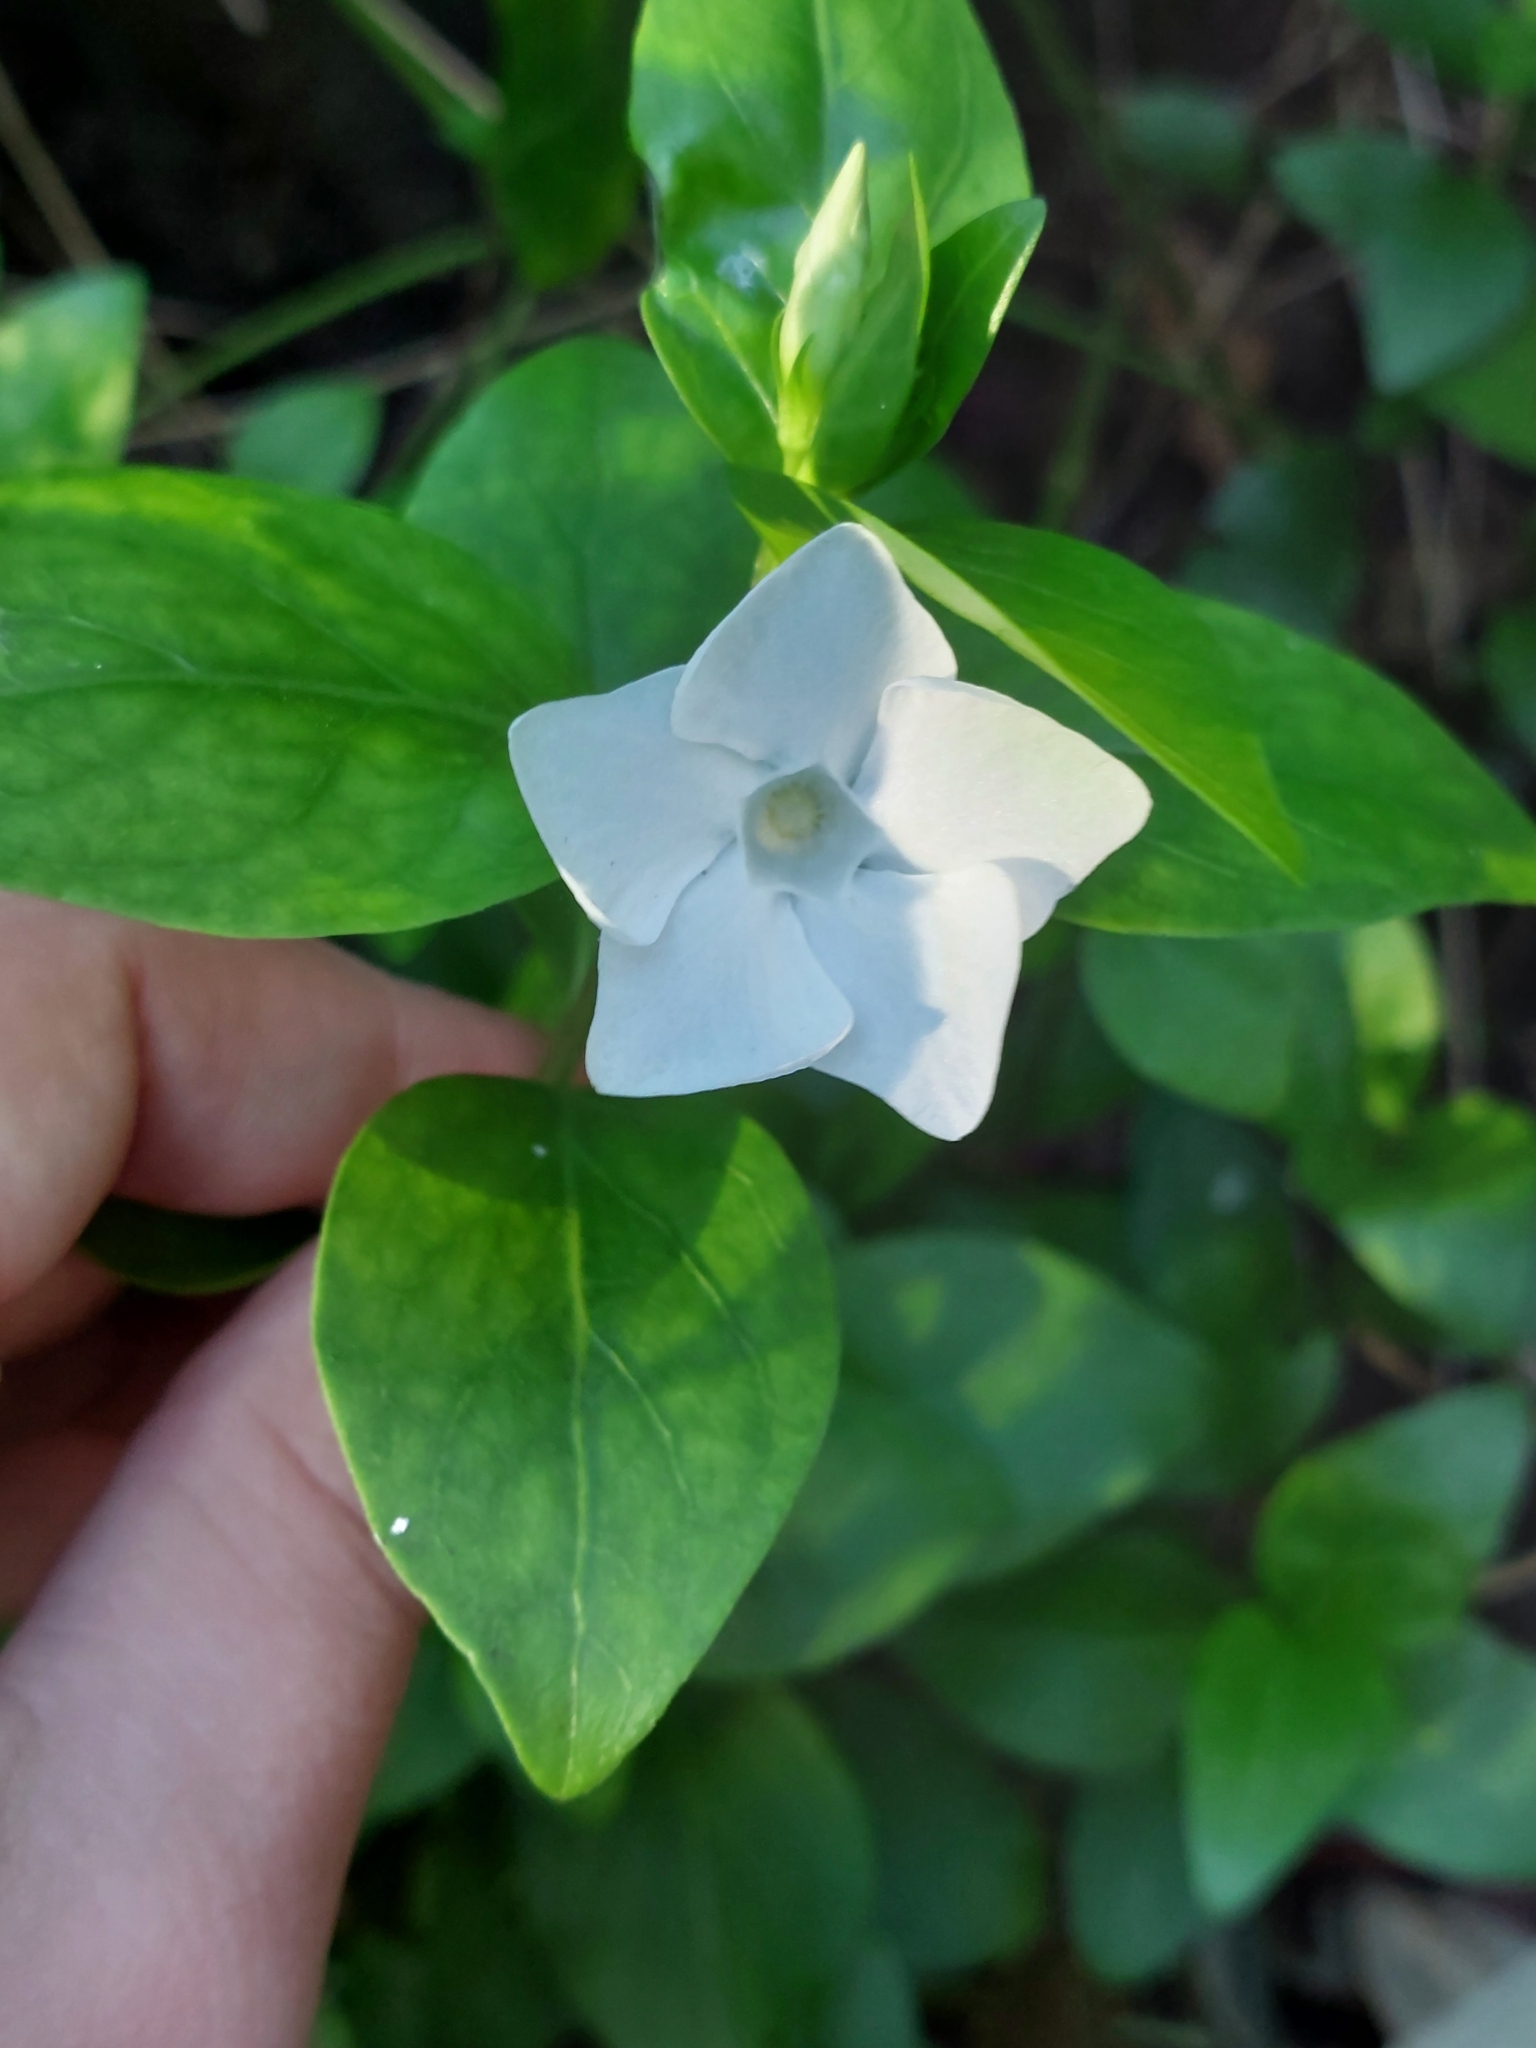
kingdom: Plantae
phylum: Tracheophyta
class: Magnoliopsida
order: Gentianales
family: Apocynaceae
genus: Vinca
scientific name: Vinca difformis
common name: Intermediate periwinkle
